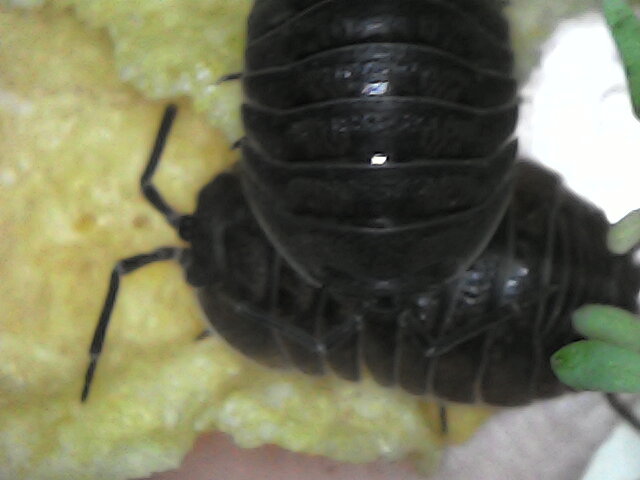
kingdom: Animalia
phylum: Arthropoda
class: Malacostraca
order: Isopoda
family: Armadillidiidae
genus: Armadillidium
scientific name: Armadillidium pallasii
